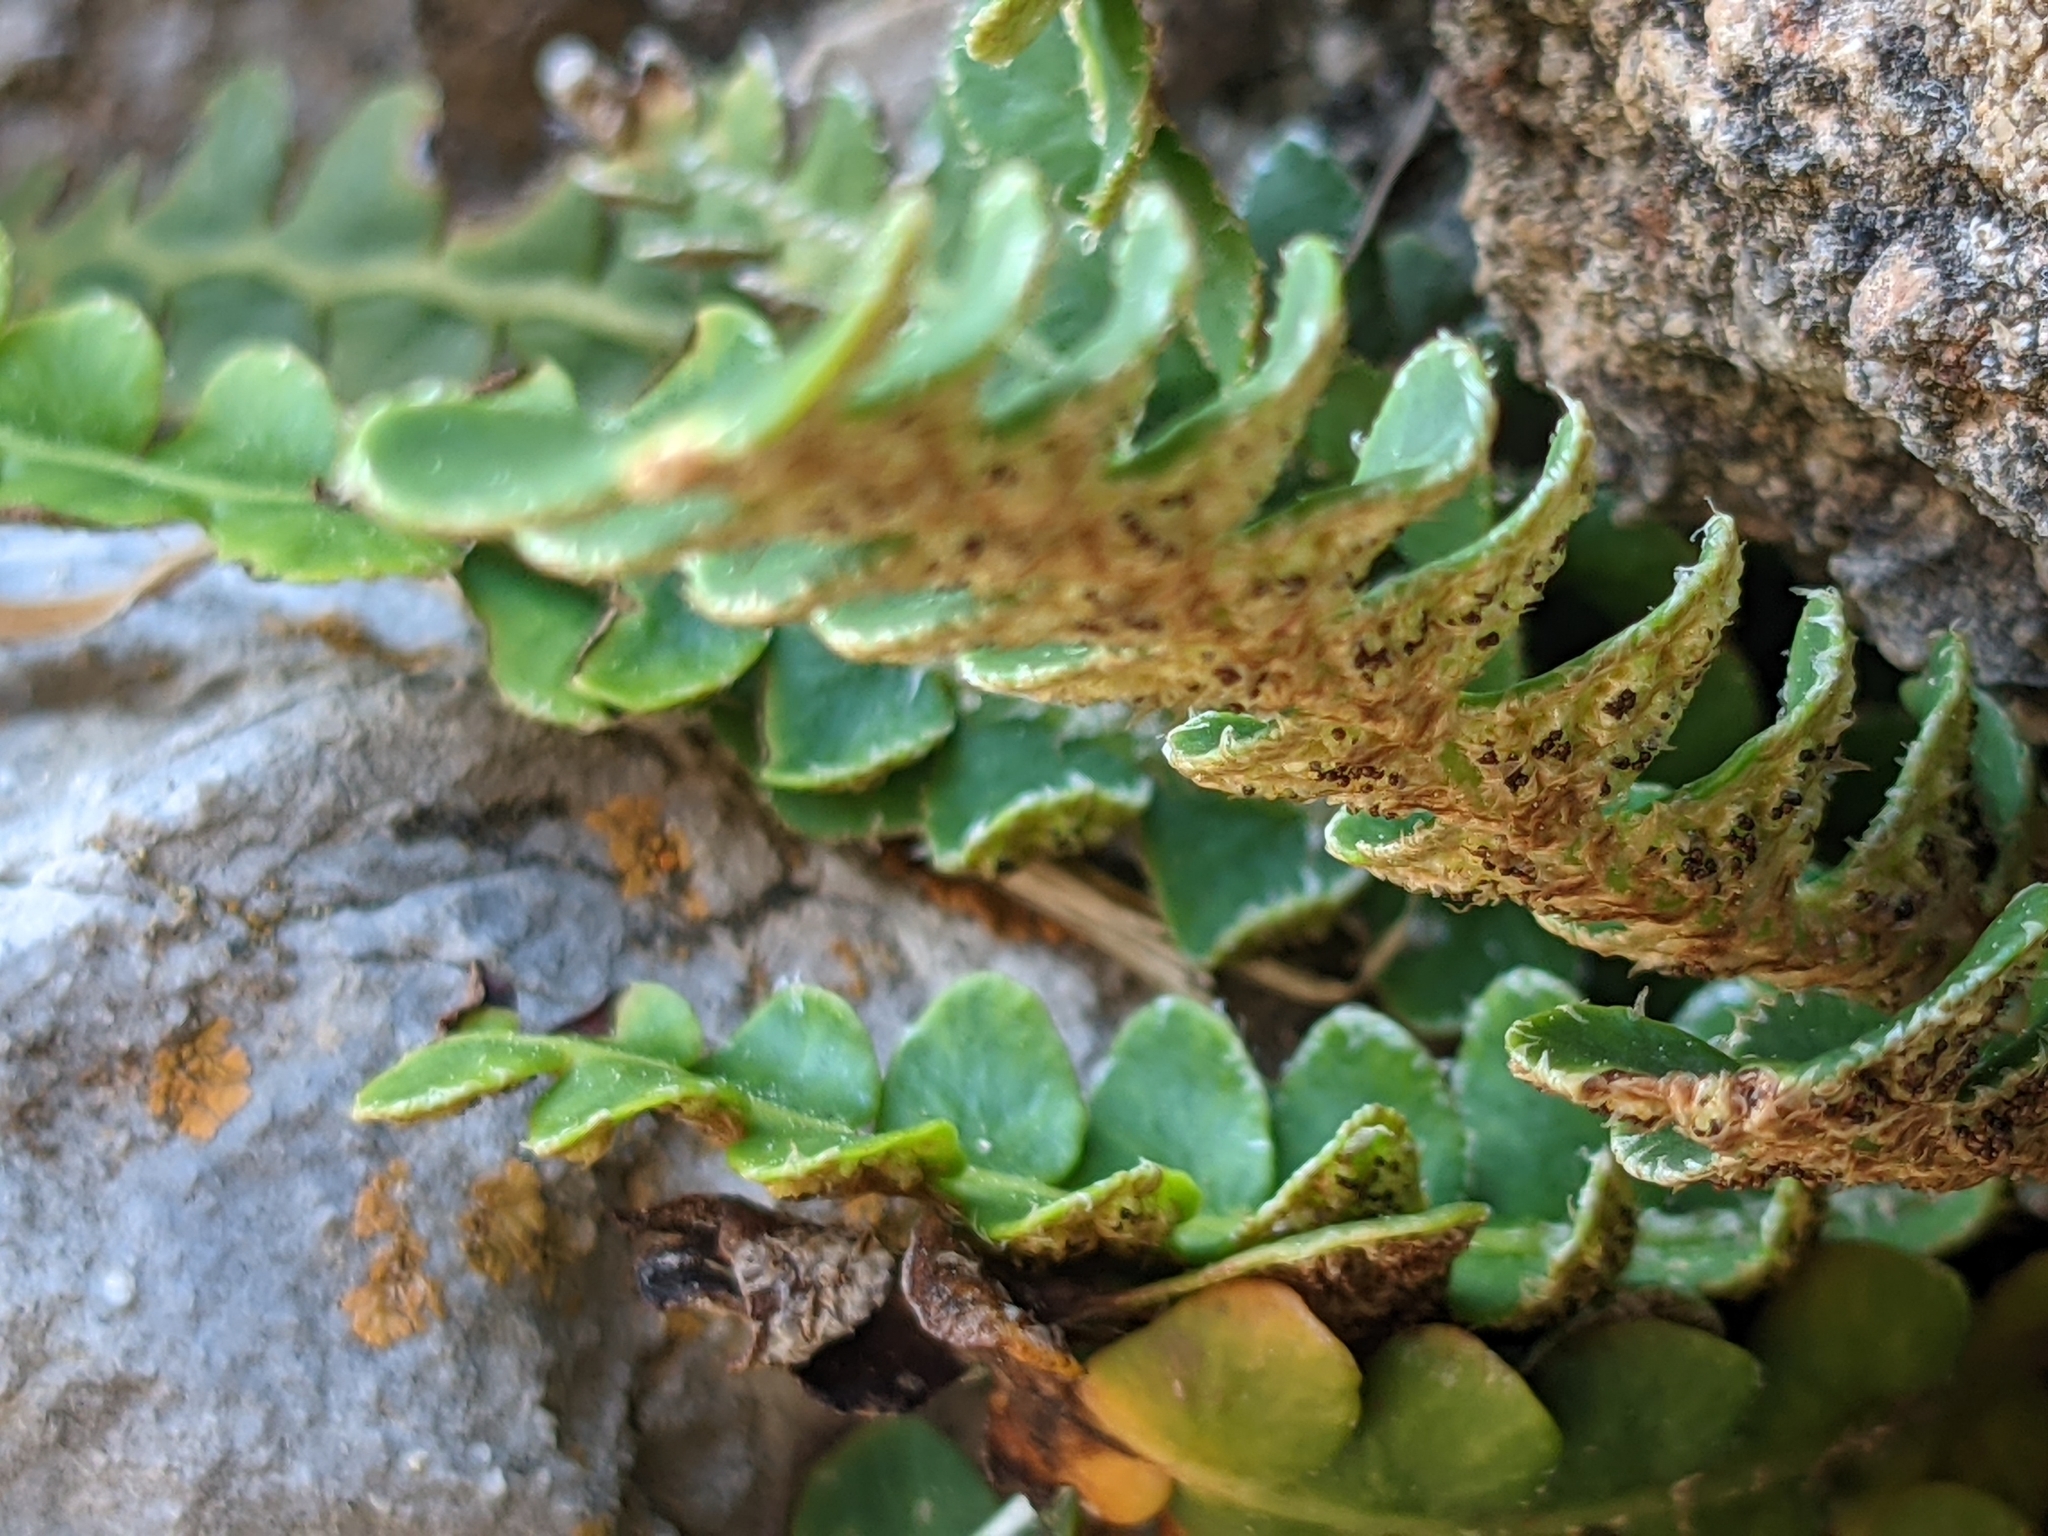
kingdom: Plantae
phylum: Tracheophyta
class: Polypodiopsida
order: Polypodiales
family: Aspleniaceae
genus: Asplenium
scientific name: Asplenium ceterach
